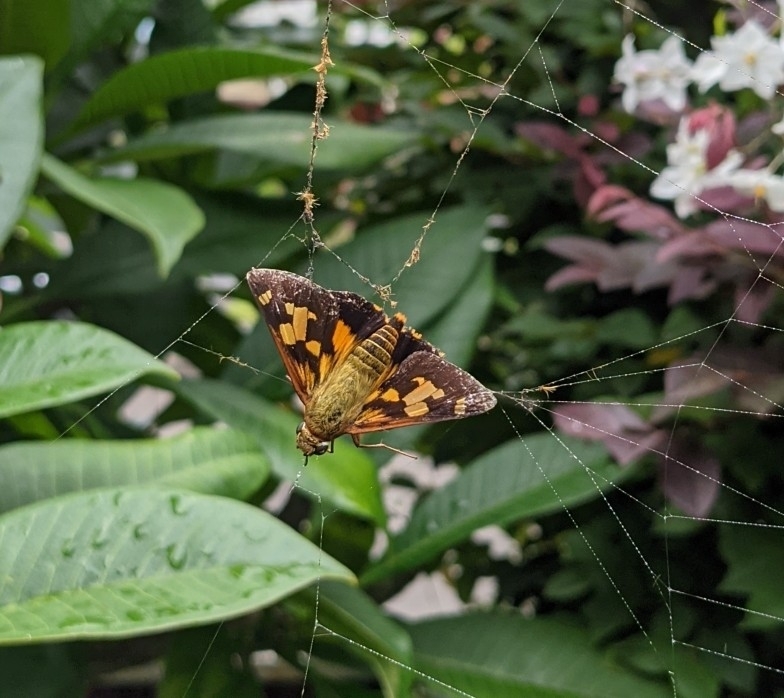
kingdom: Animalia
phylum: Arthropoda
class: Insecta
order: Lepidoptera
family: Hesperiidae
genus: Trapezites
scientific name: Trapezites symmomus
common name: Splendid ochre
